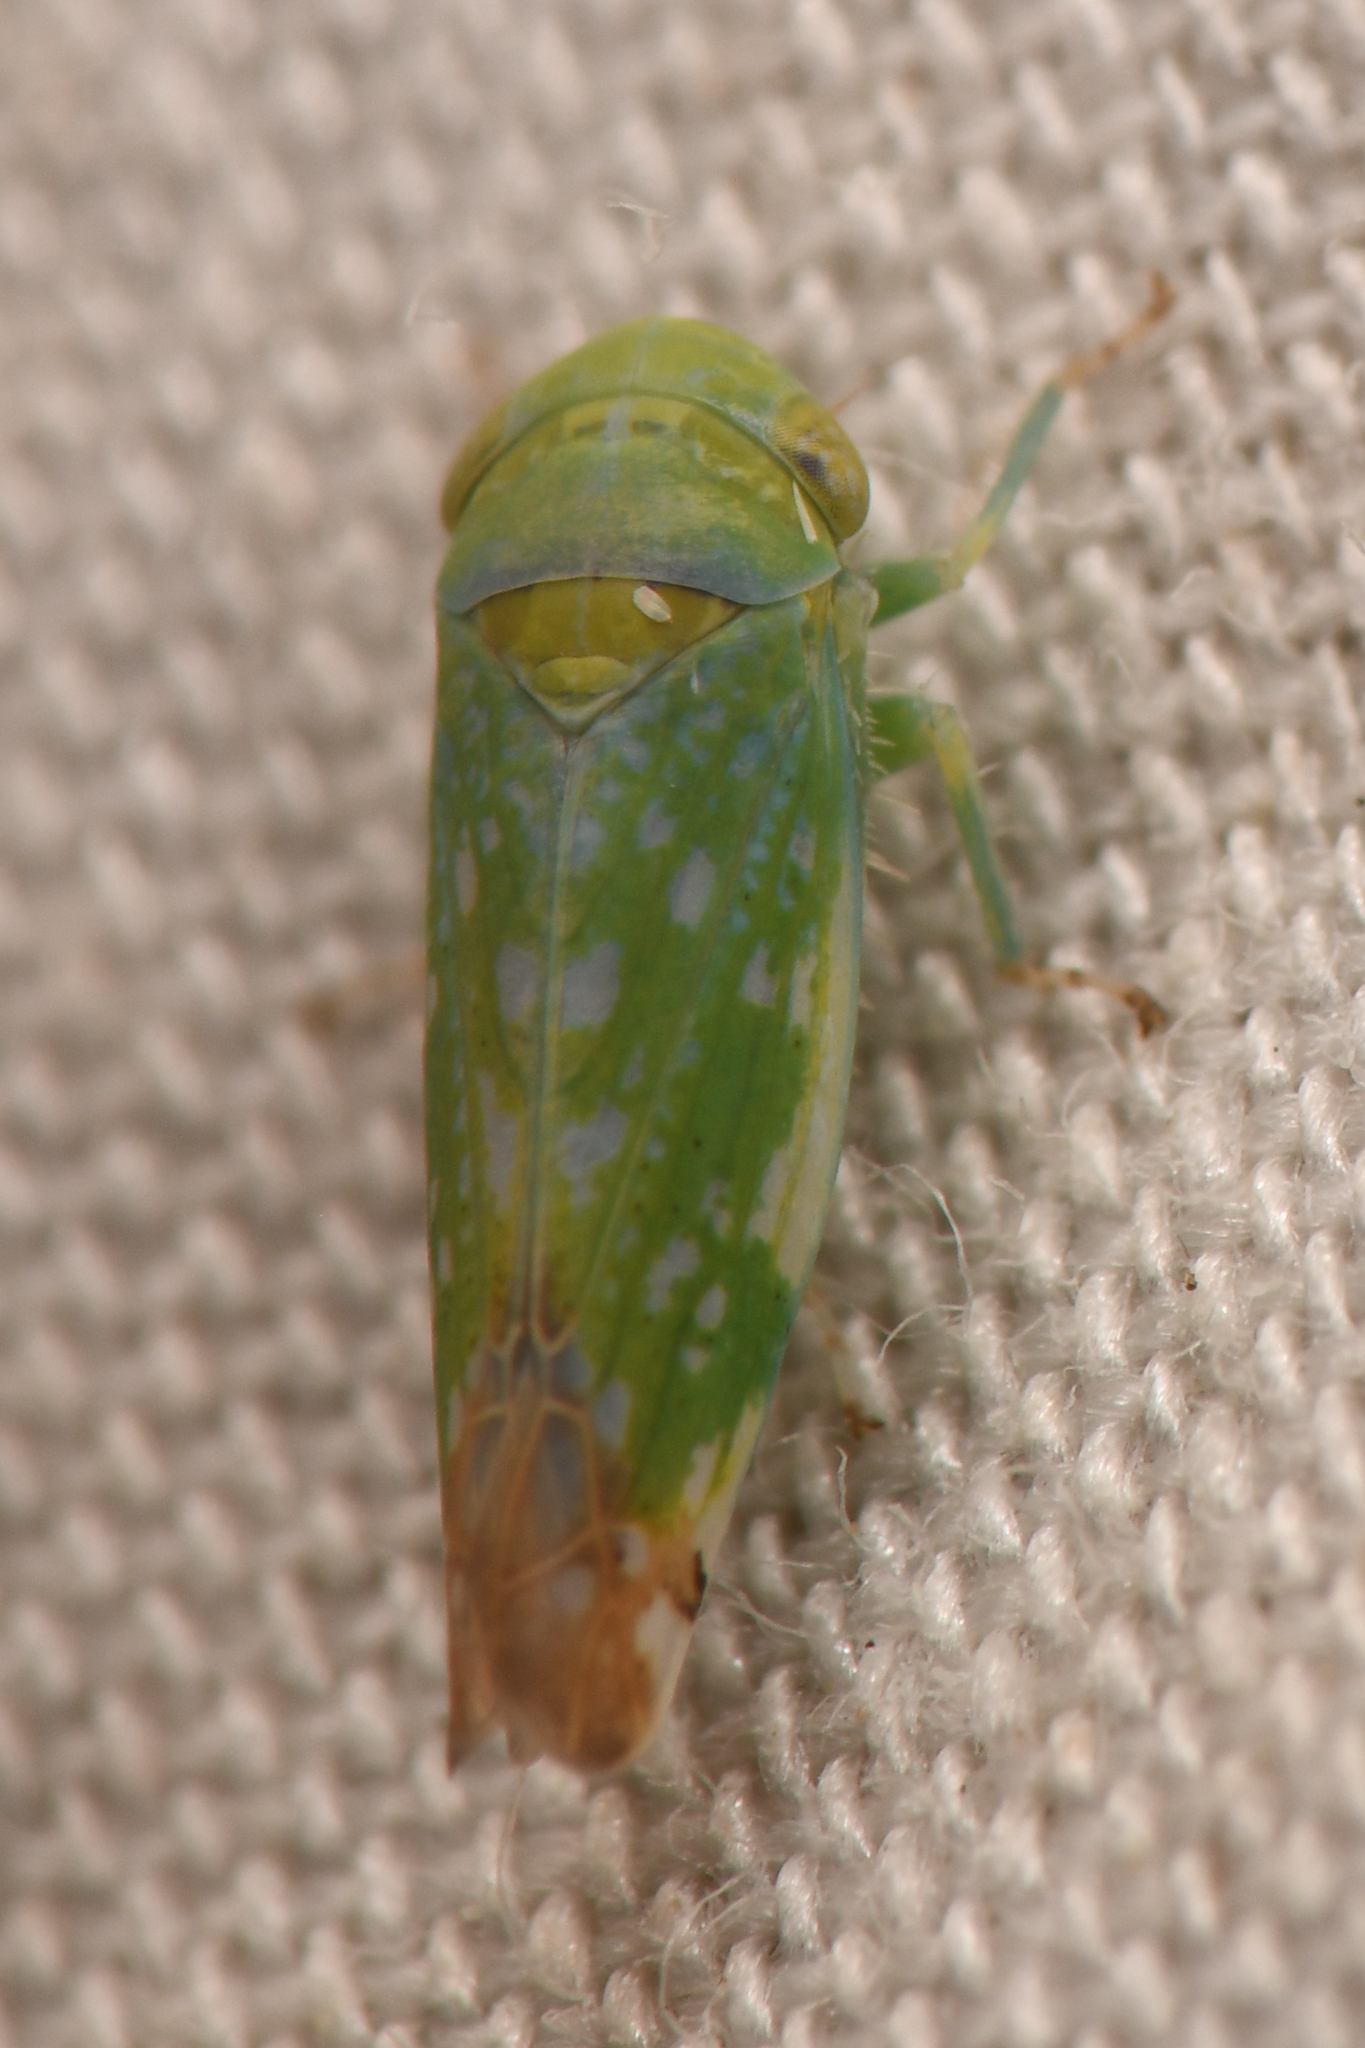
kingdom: Animalia
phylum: Arthropoda
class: Insecta
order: Hemiptera
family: Cicadellidae
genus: Opsius
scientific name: Opsius stactogalus
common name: Leafhopper
